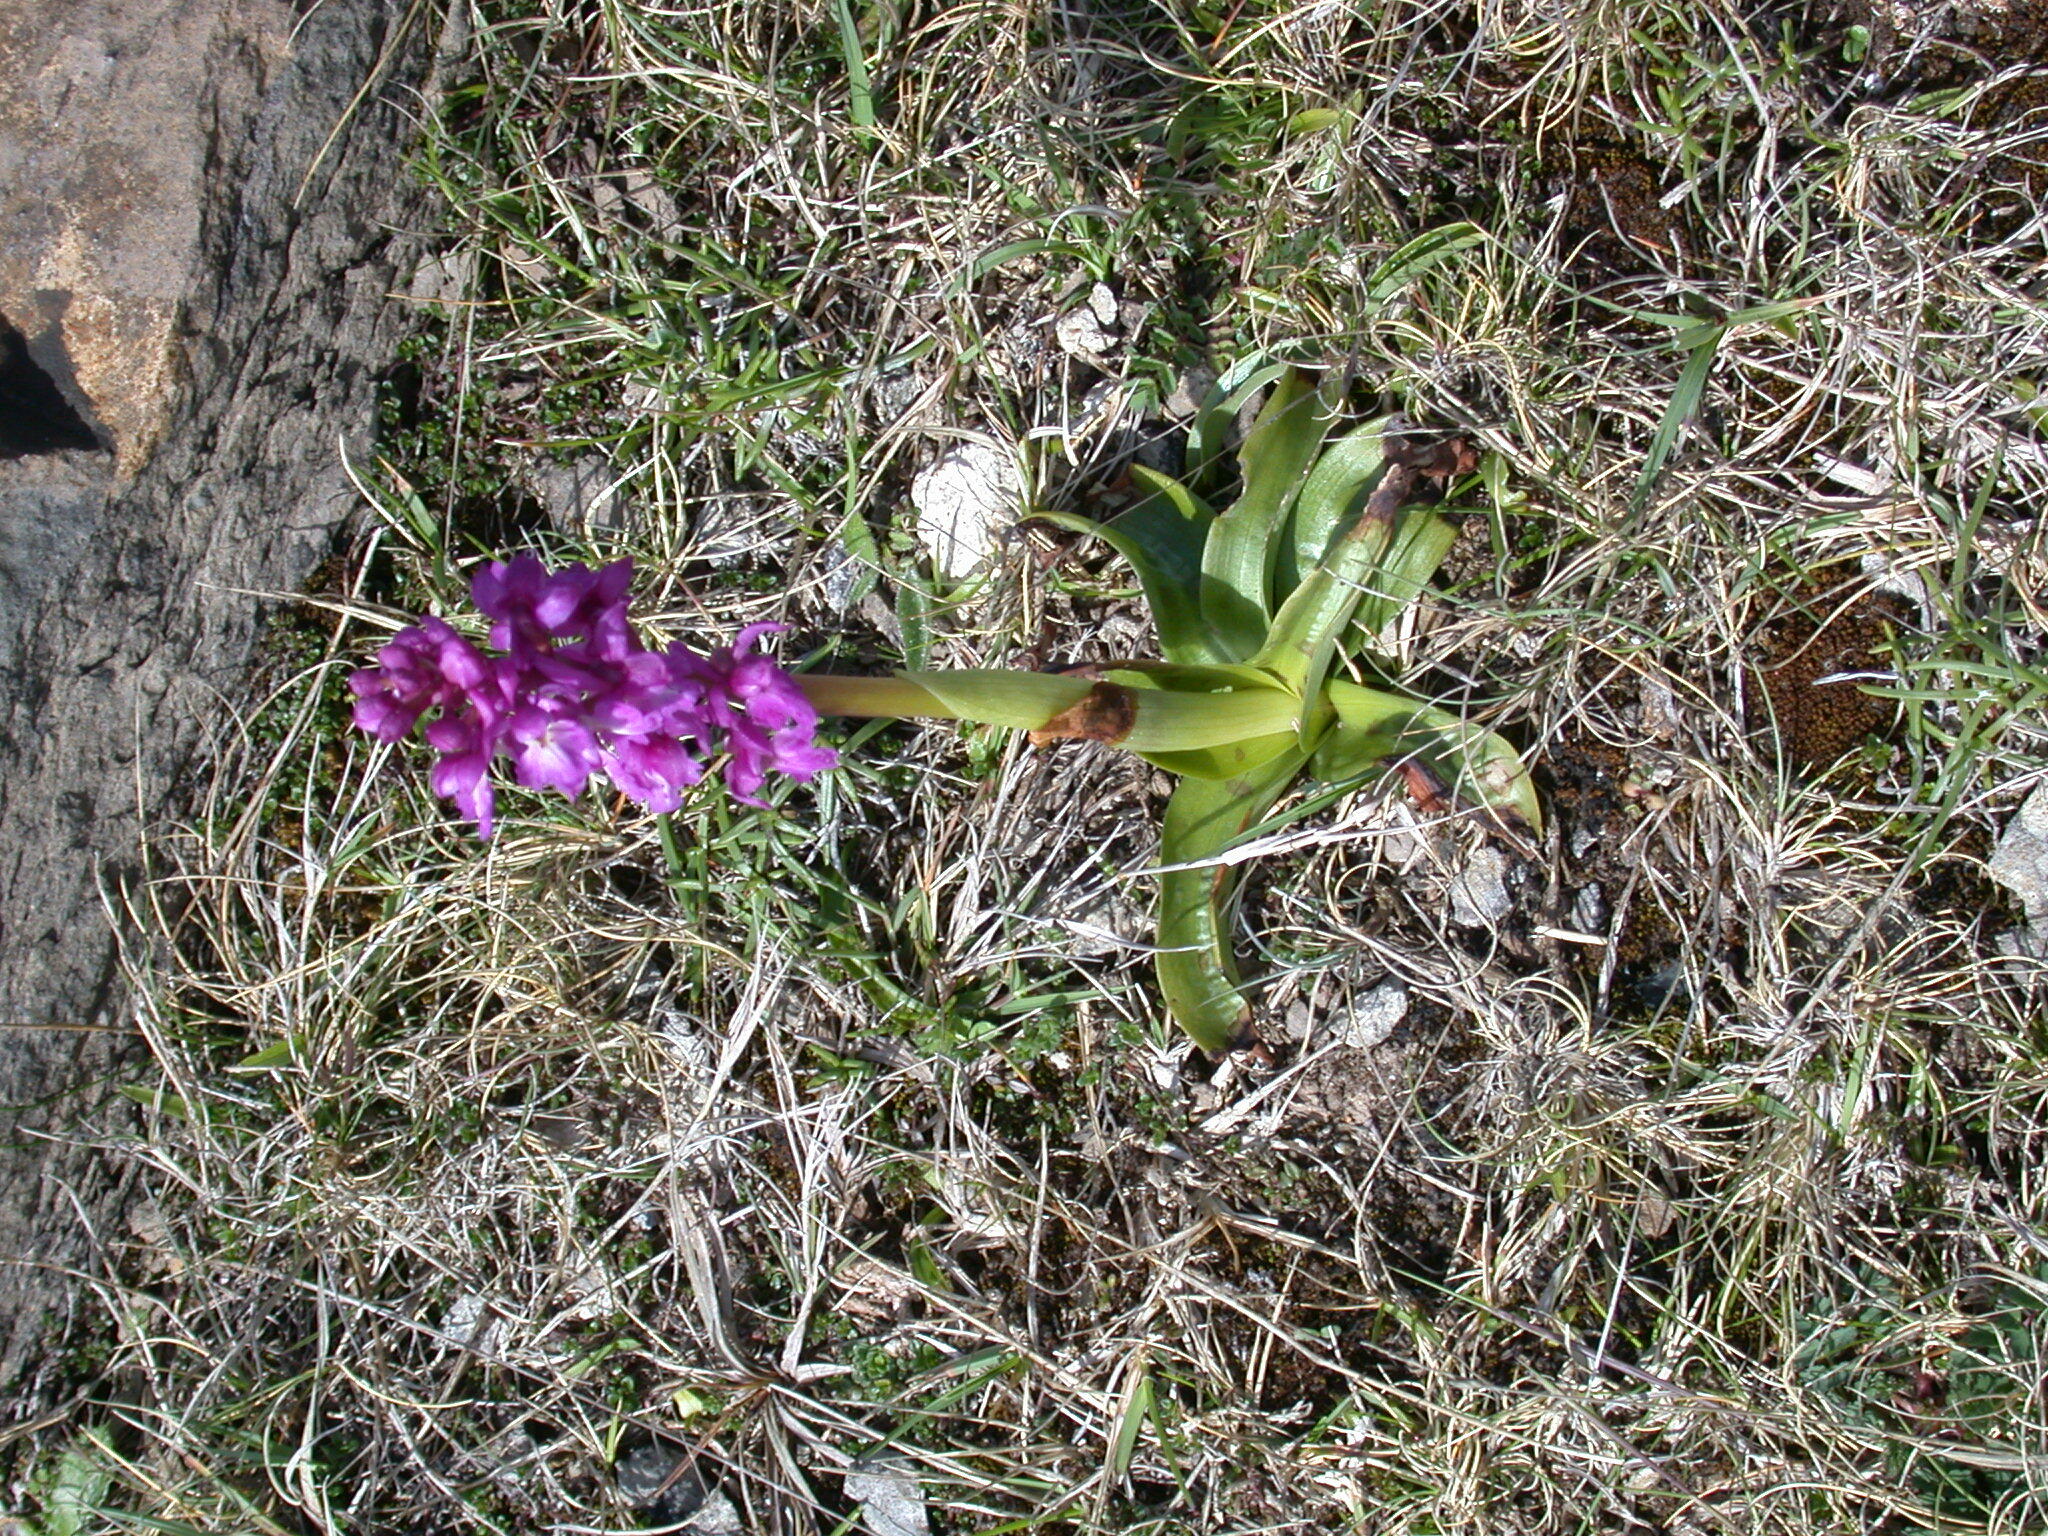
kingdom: Plantae
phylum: Tracheophyta
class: Liliopsida
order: Asparagales
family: Orchidaceae
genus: Orchis
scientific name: Orchis mascula
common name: Early-purple orchid
